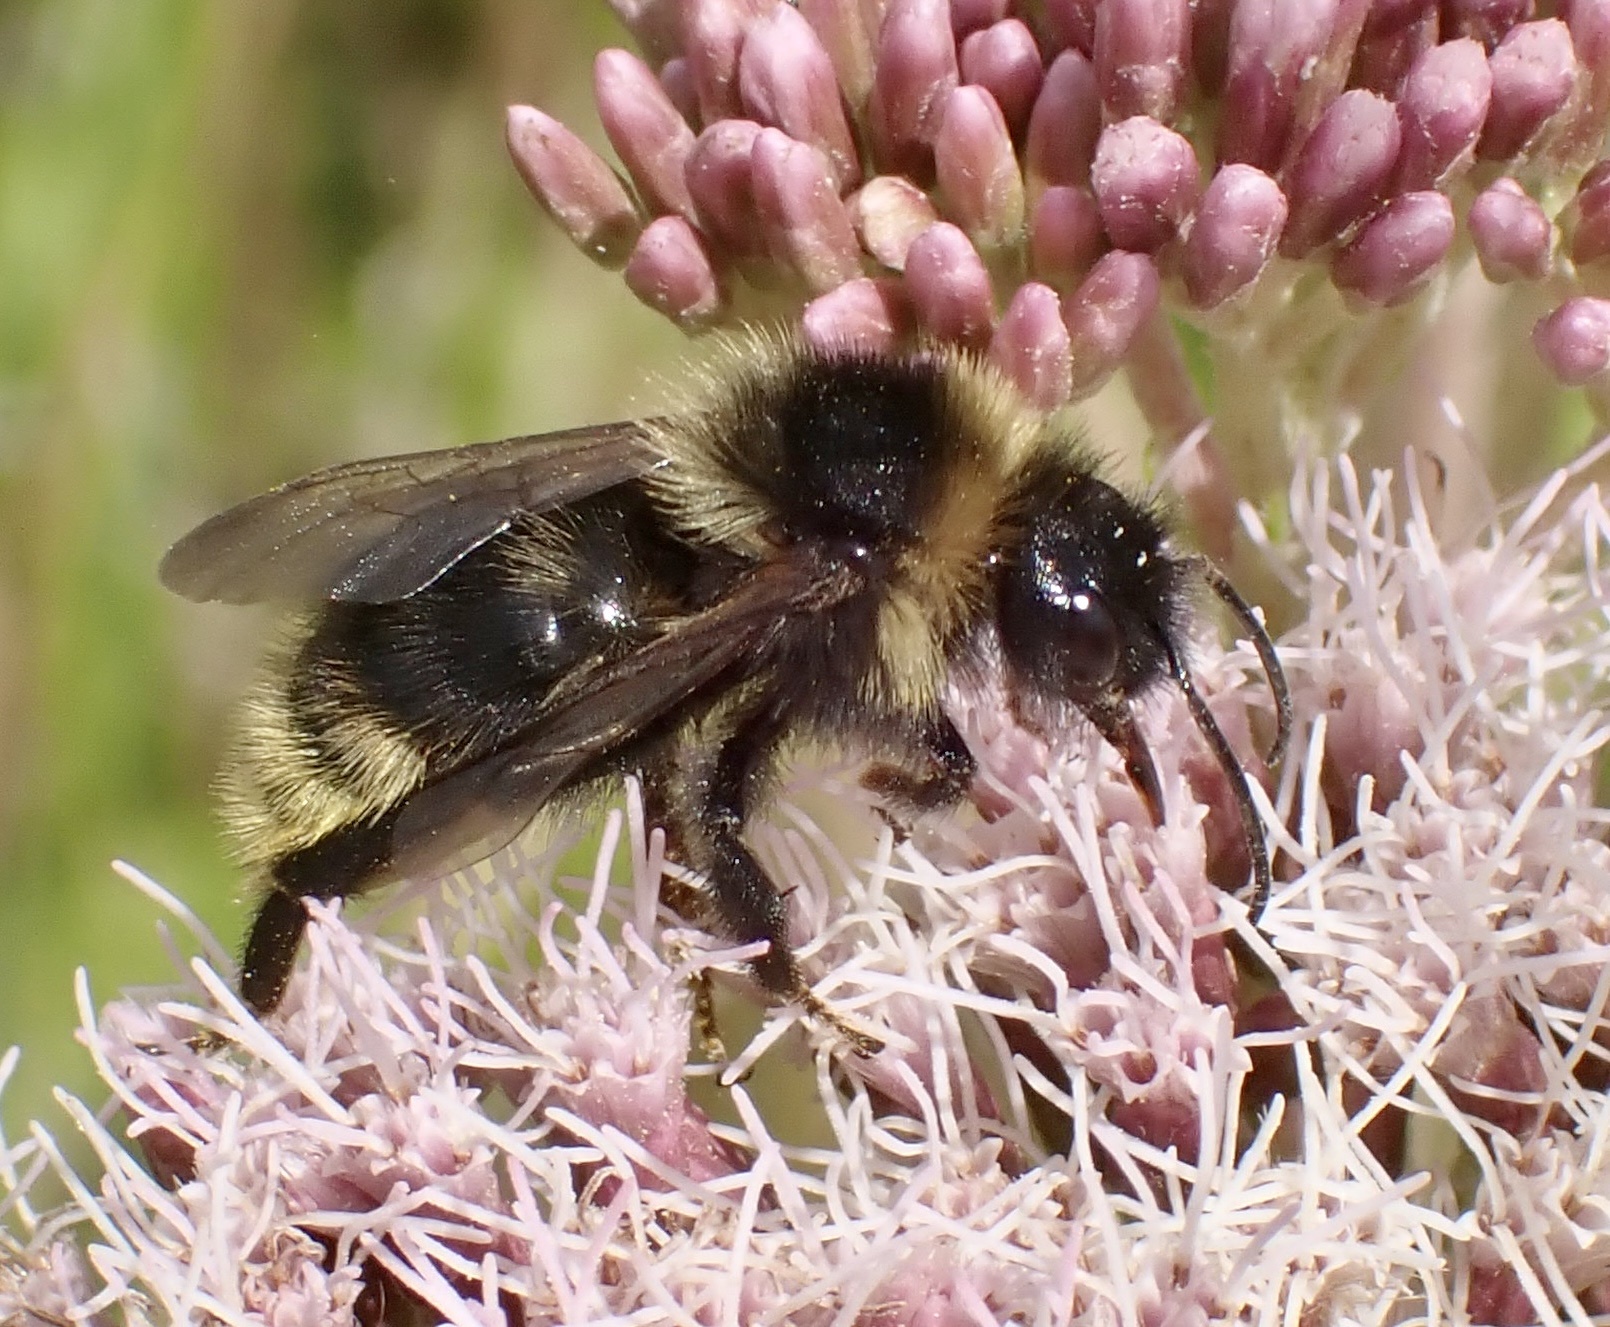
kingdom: Animalia
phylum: Arthropoda
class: Insecta
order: Hymenoptera
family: Apidae
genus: Bombus
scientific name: Bombus campestris
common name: Field cuckoo-bee
